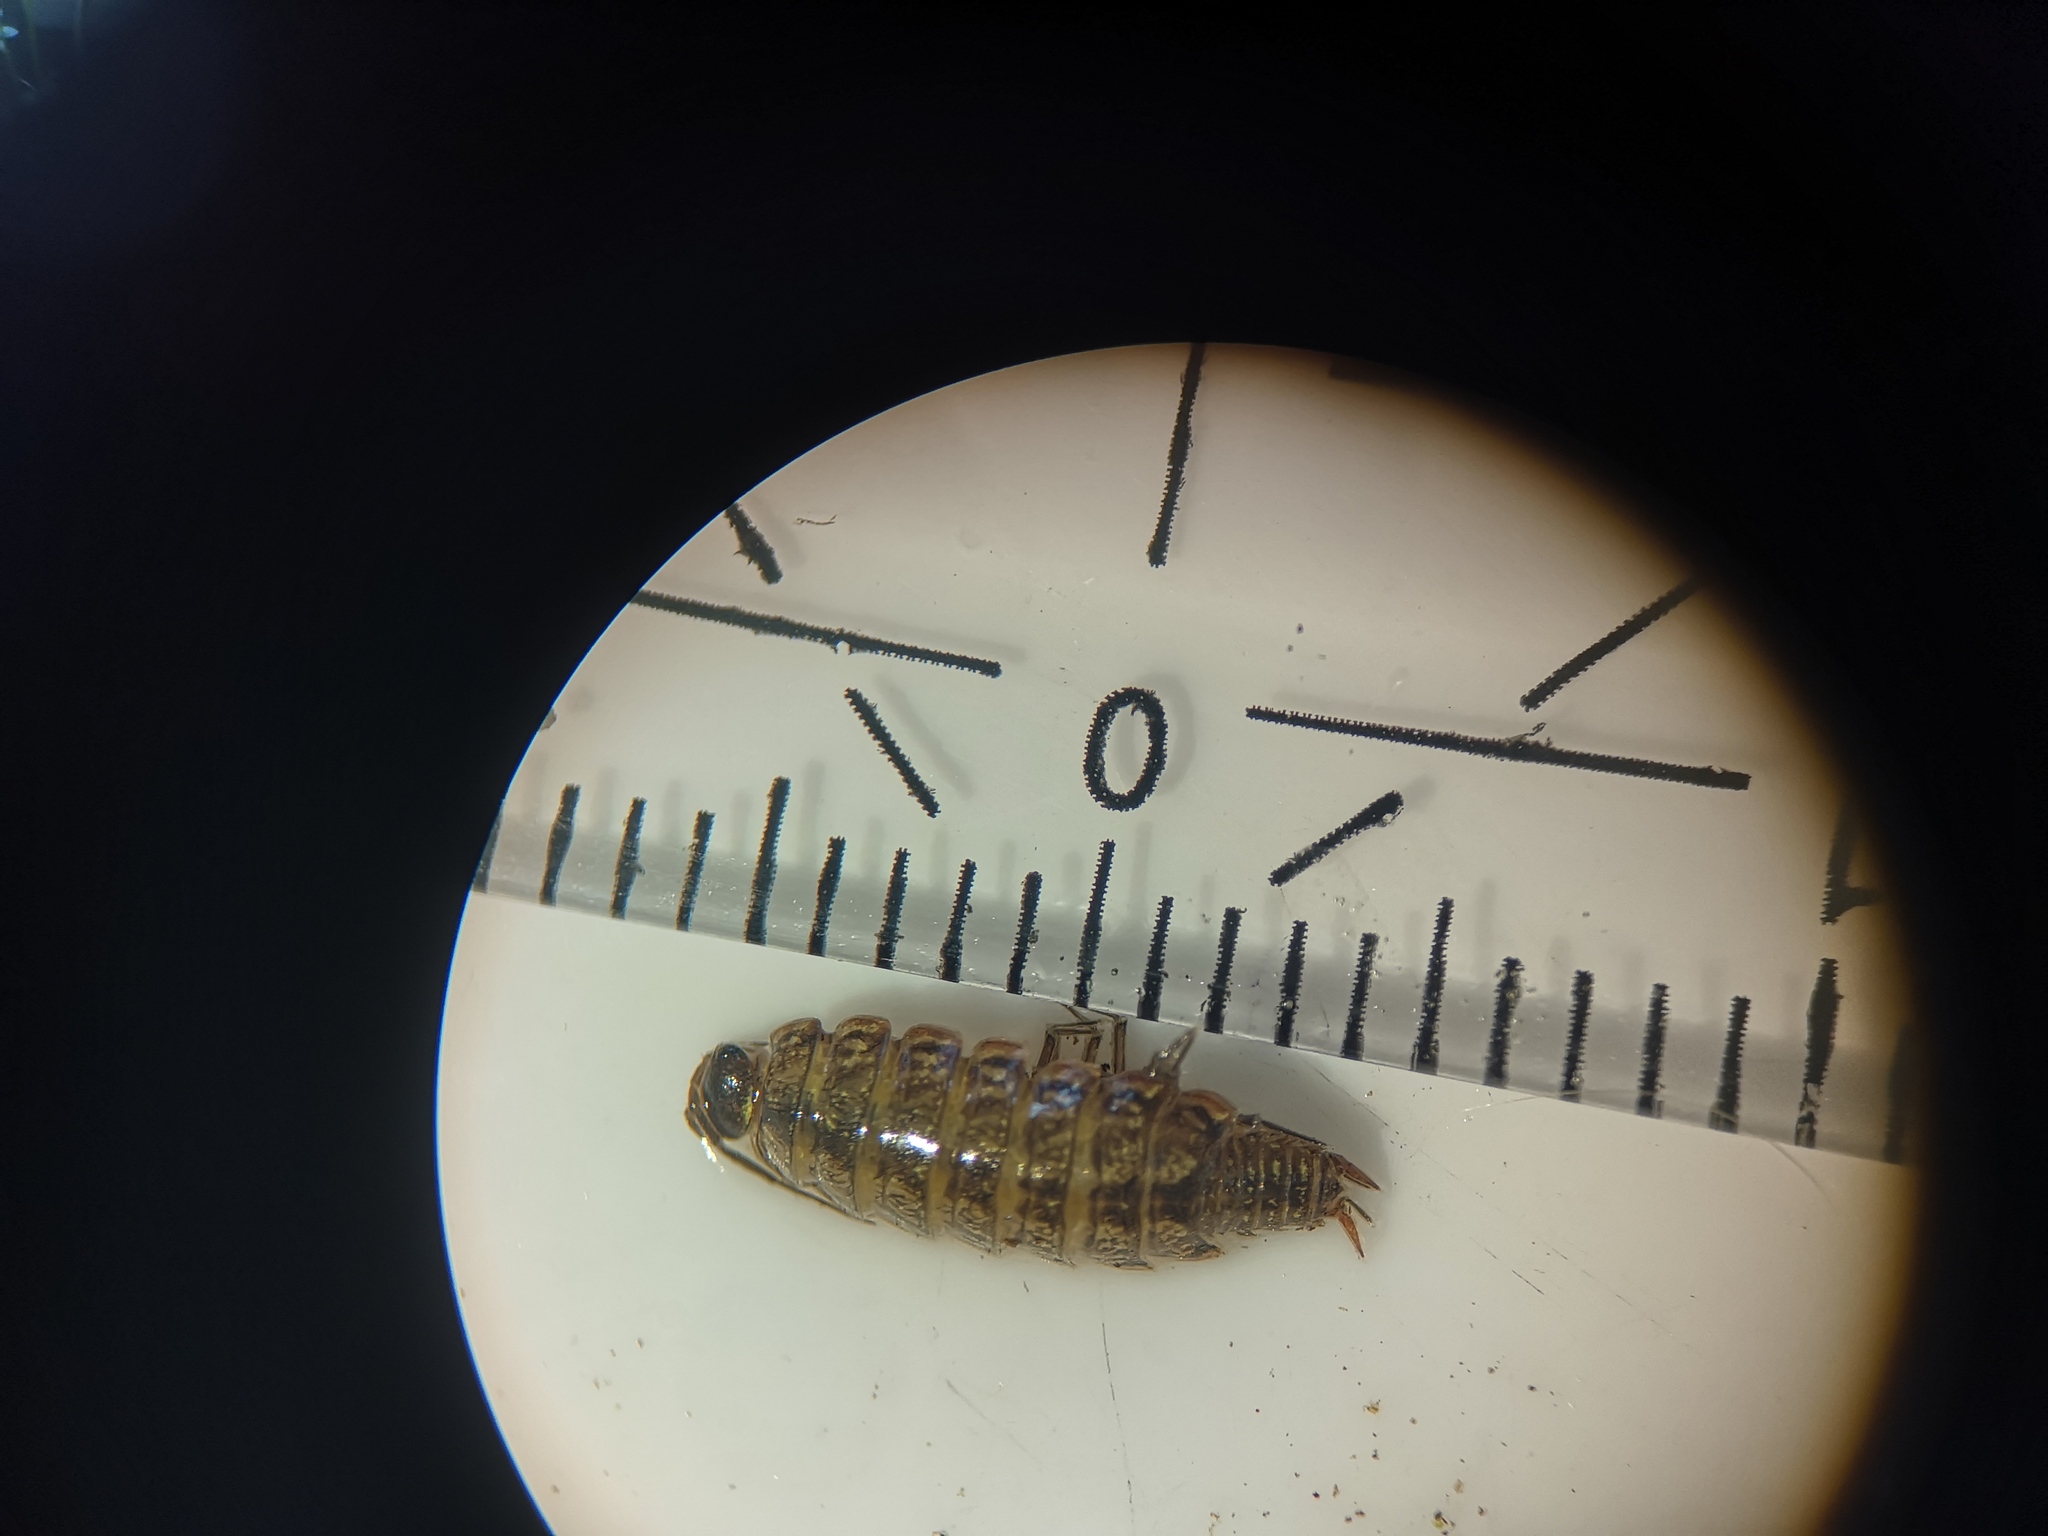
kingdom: Animalia
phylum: Arthropoda
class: Malacostraca
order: Isopoda
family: Philosciidae
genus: Philoscia
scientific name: Philoscia muscorum
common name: Common striped woodlouse
